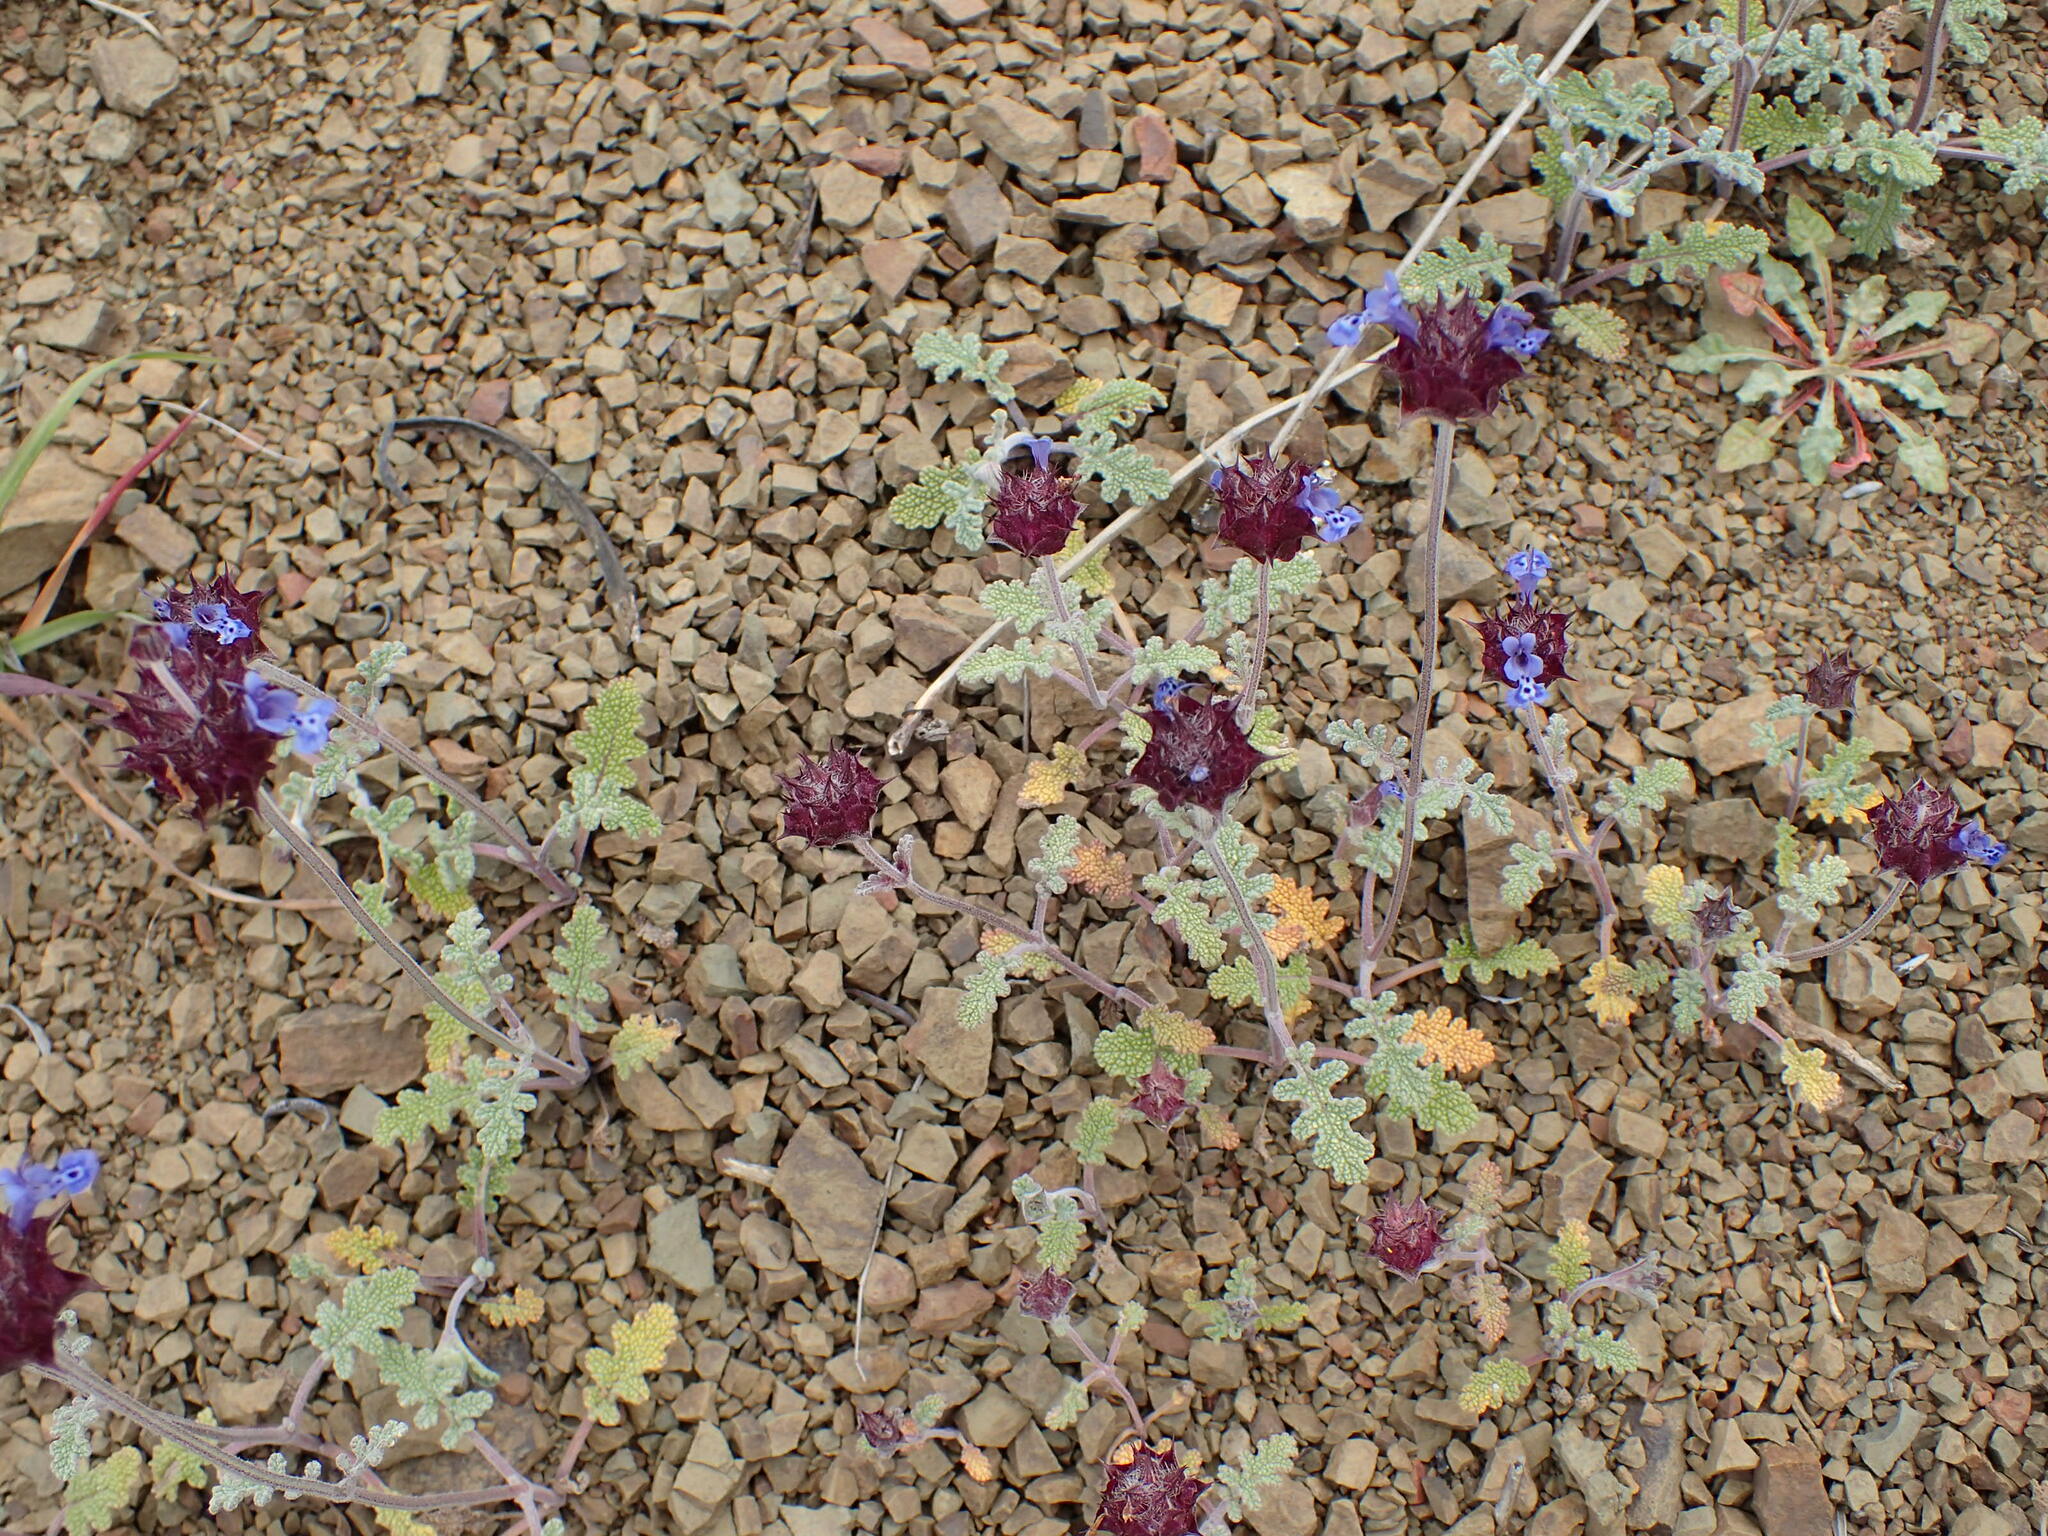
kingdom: Plantae
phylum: Tracheophyta
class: Magnoliopsida
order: Lamiales
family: Lamiaceae
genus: Salvia
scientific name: Salvia columbariae
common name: Chia
